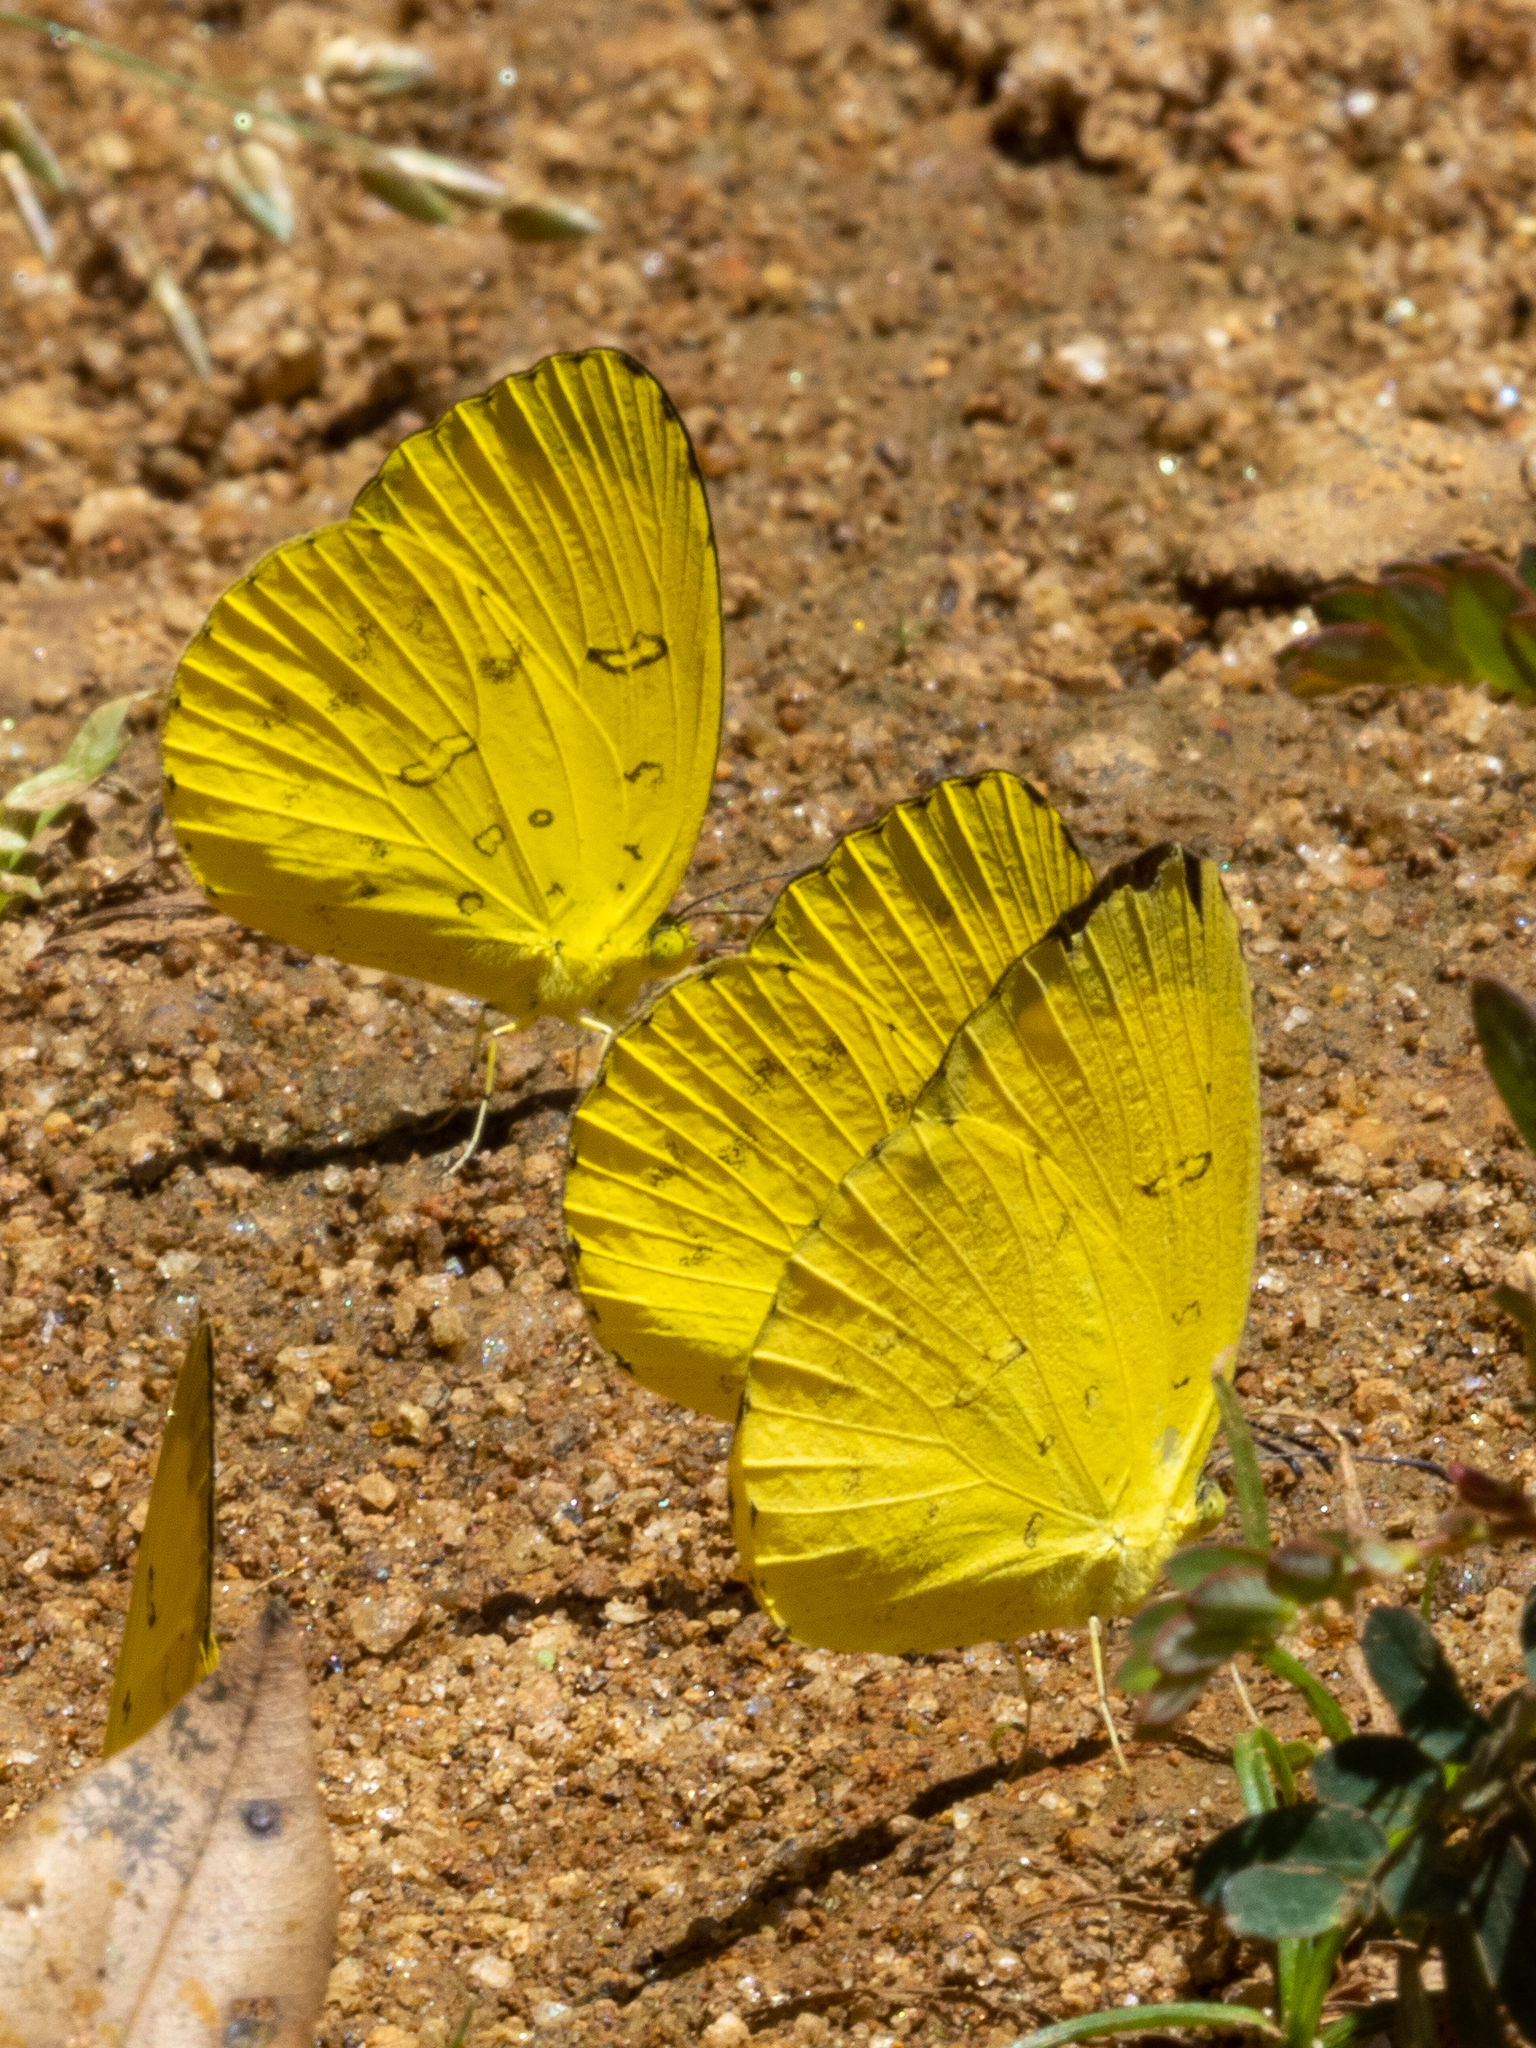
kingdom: Animalia
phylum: Arthropoda
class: Insecta
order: Lepidoptera
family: Pieridae
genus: Eurema
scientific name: Eurema blanda
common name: Three-spot grass yellow
